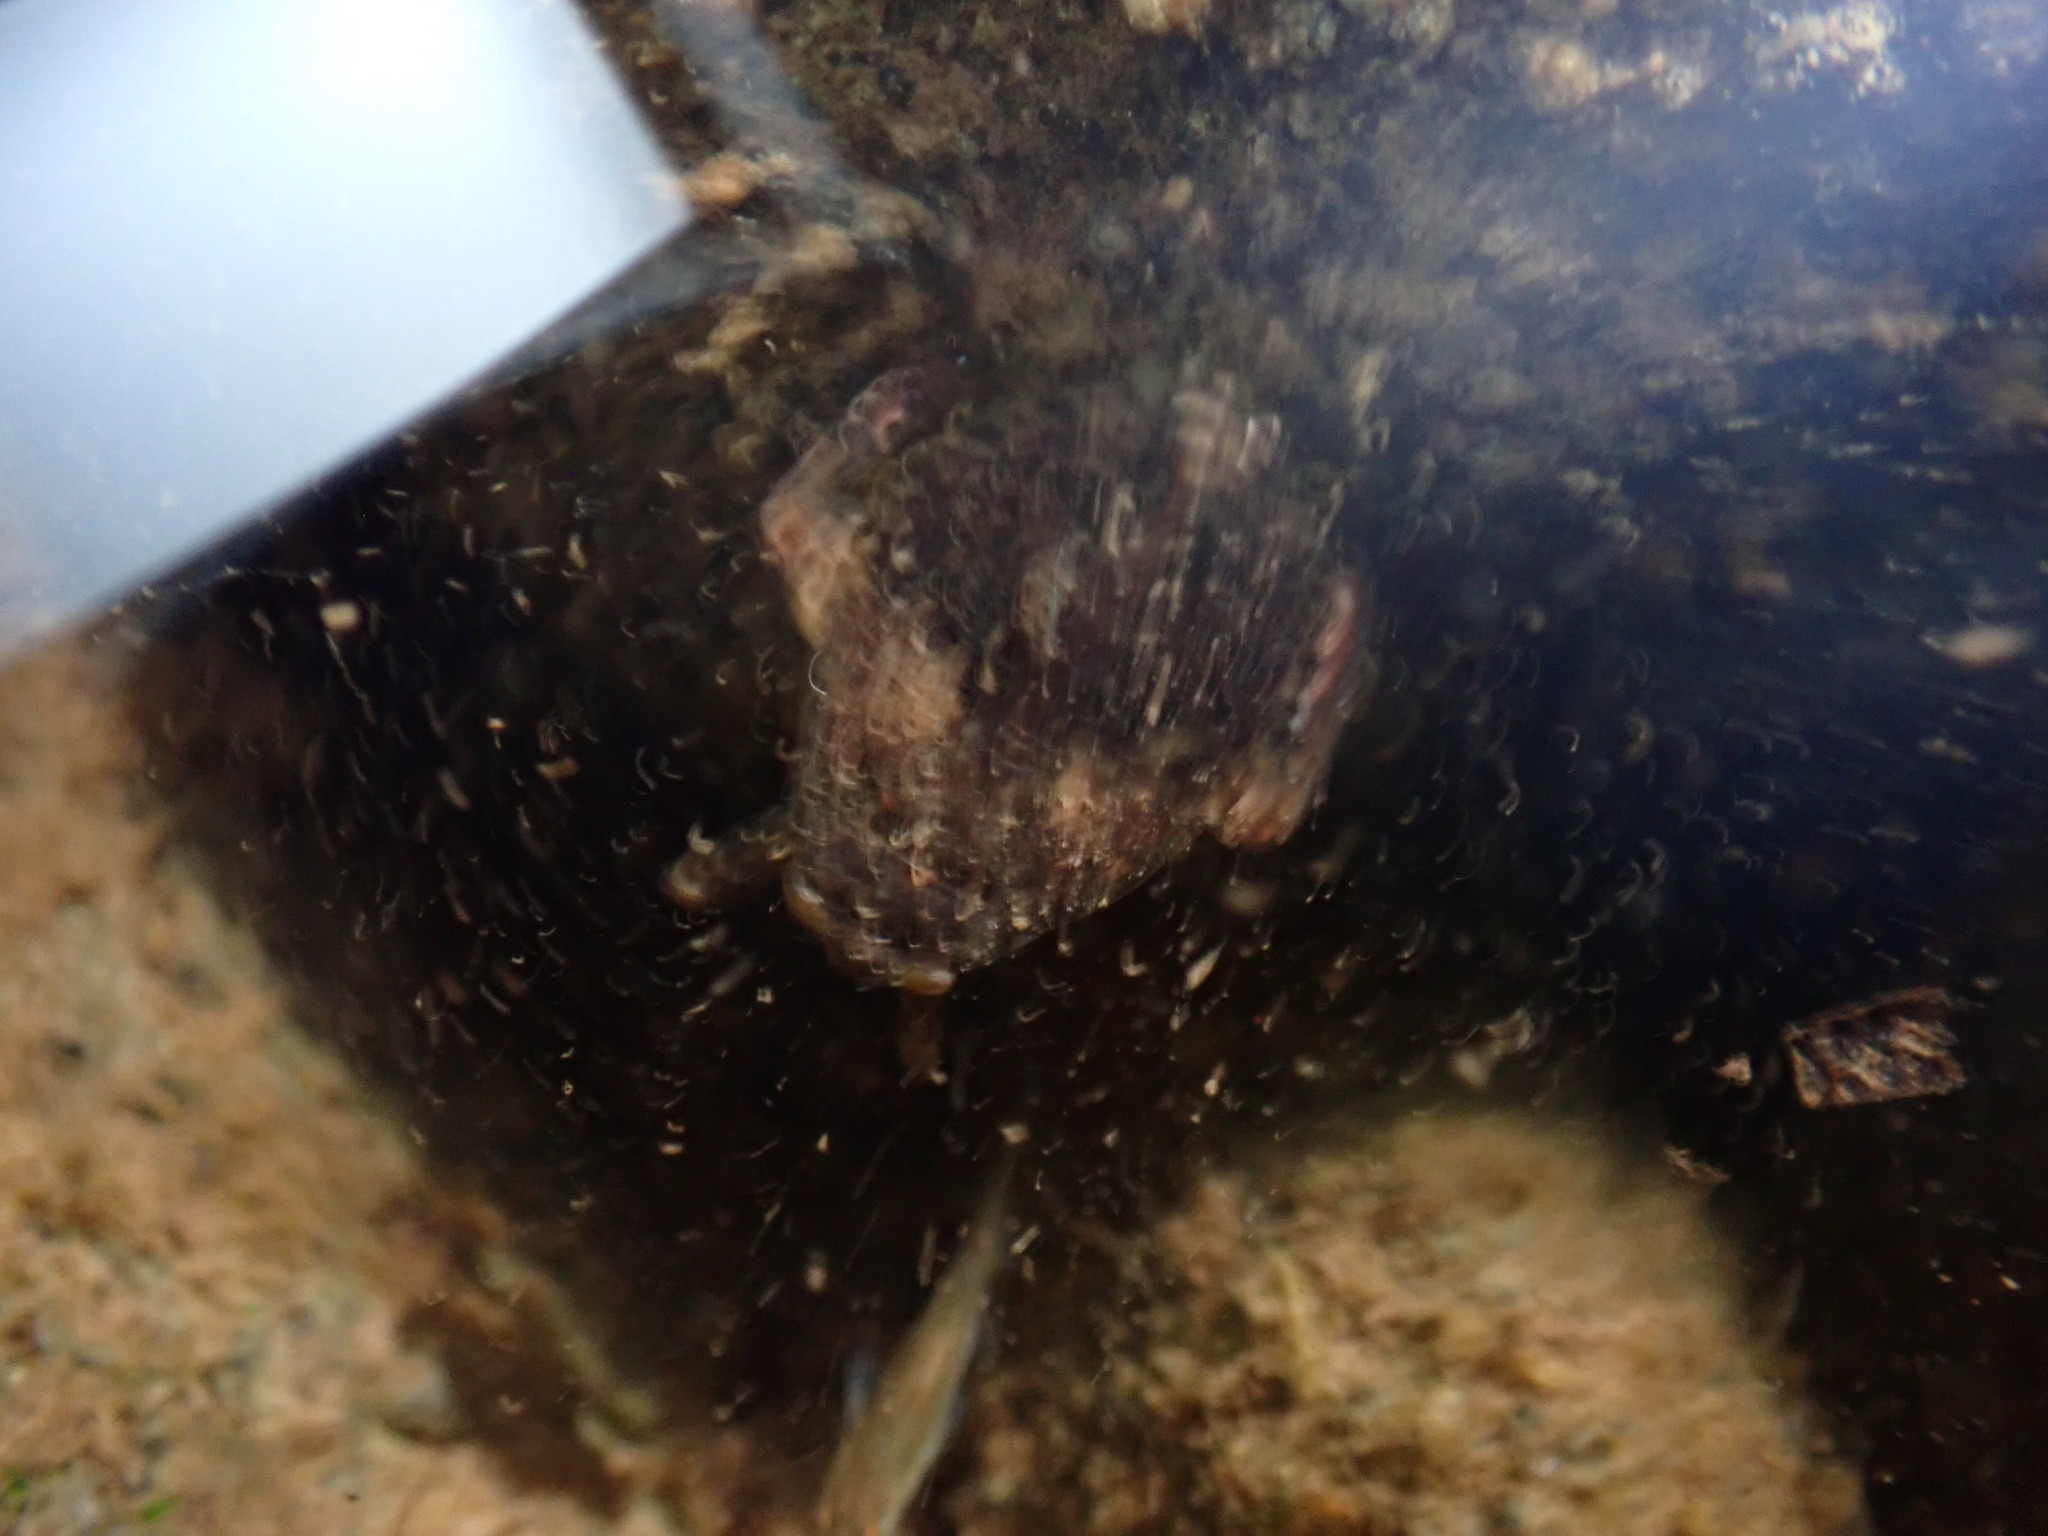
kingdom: Animalia
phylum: Arthropoda
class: Insecta
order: Hemiptera
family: Belostomatidae
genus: Abedus
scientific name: Abedus
